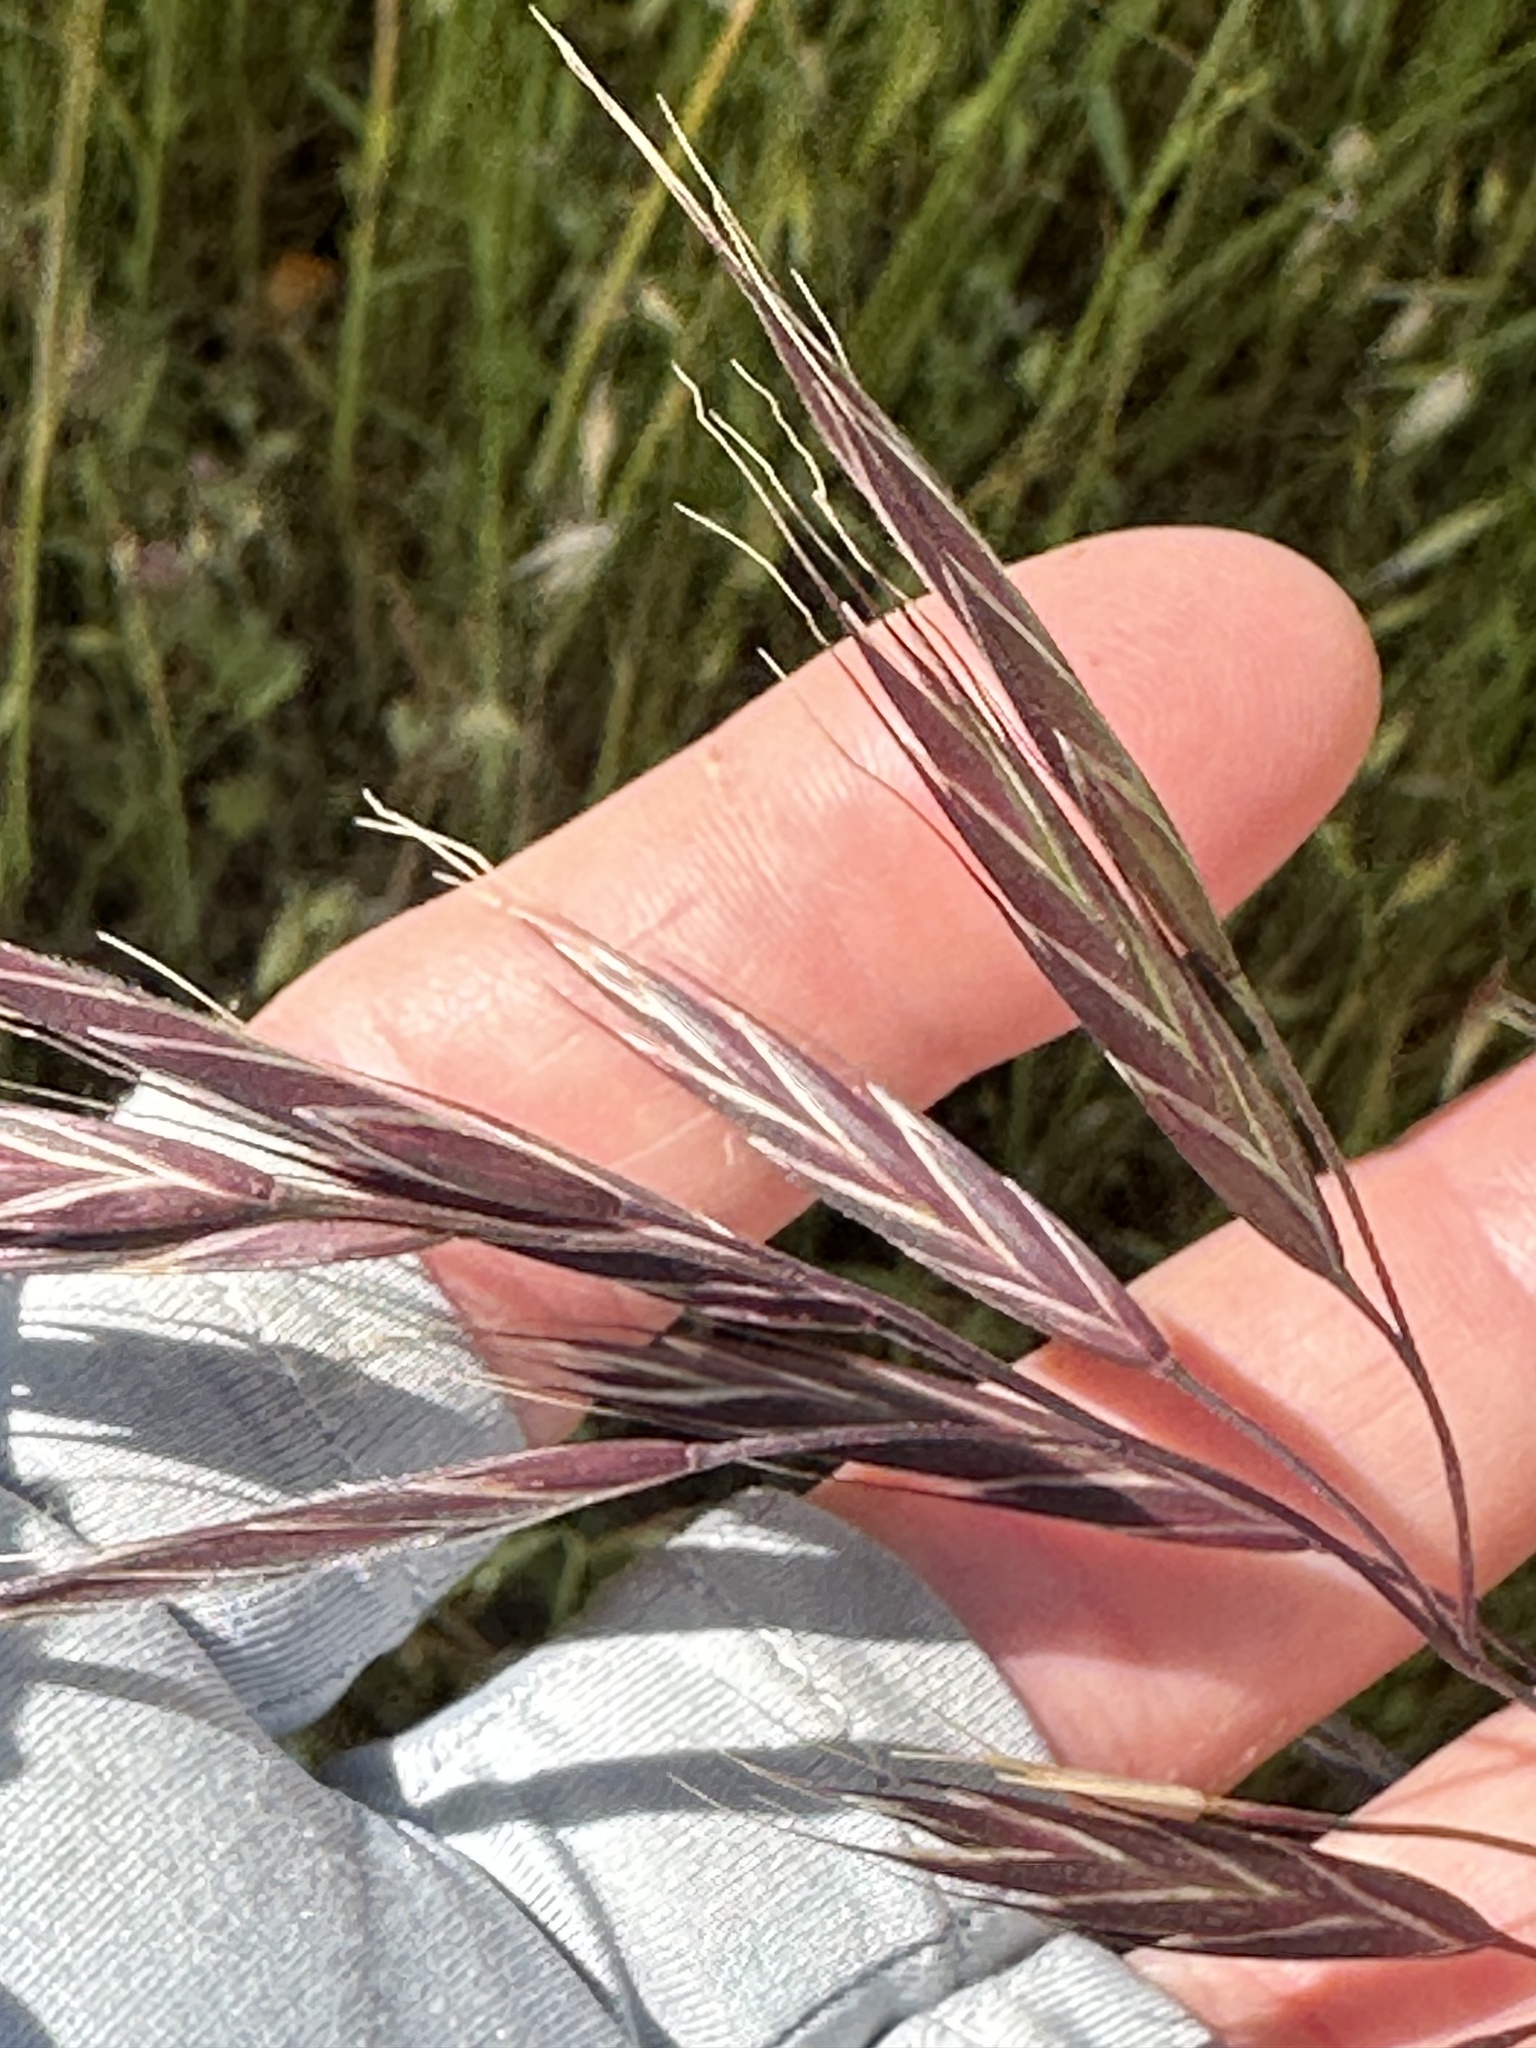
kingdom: Plantae
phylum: Tracheophyta
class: Liliopsida
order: Poales
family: Poaceae
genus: Bromus
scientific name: Bromus carinatus
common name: Mountain brome
